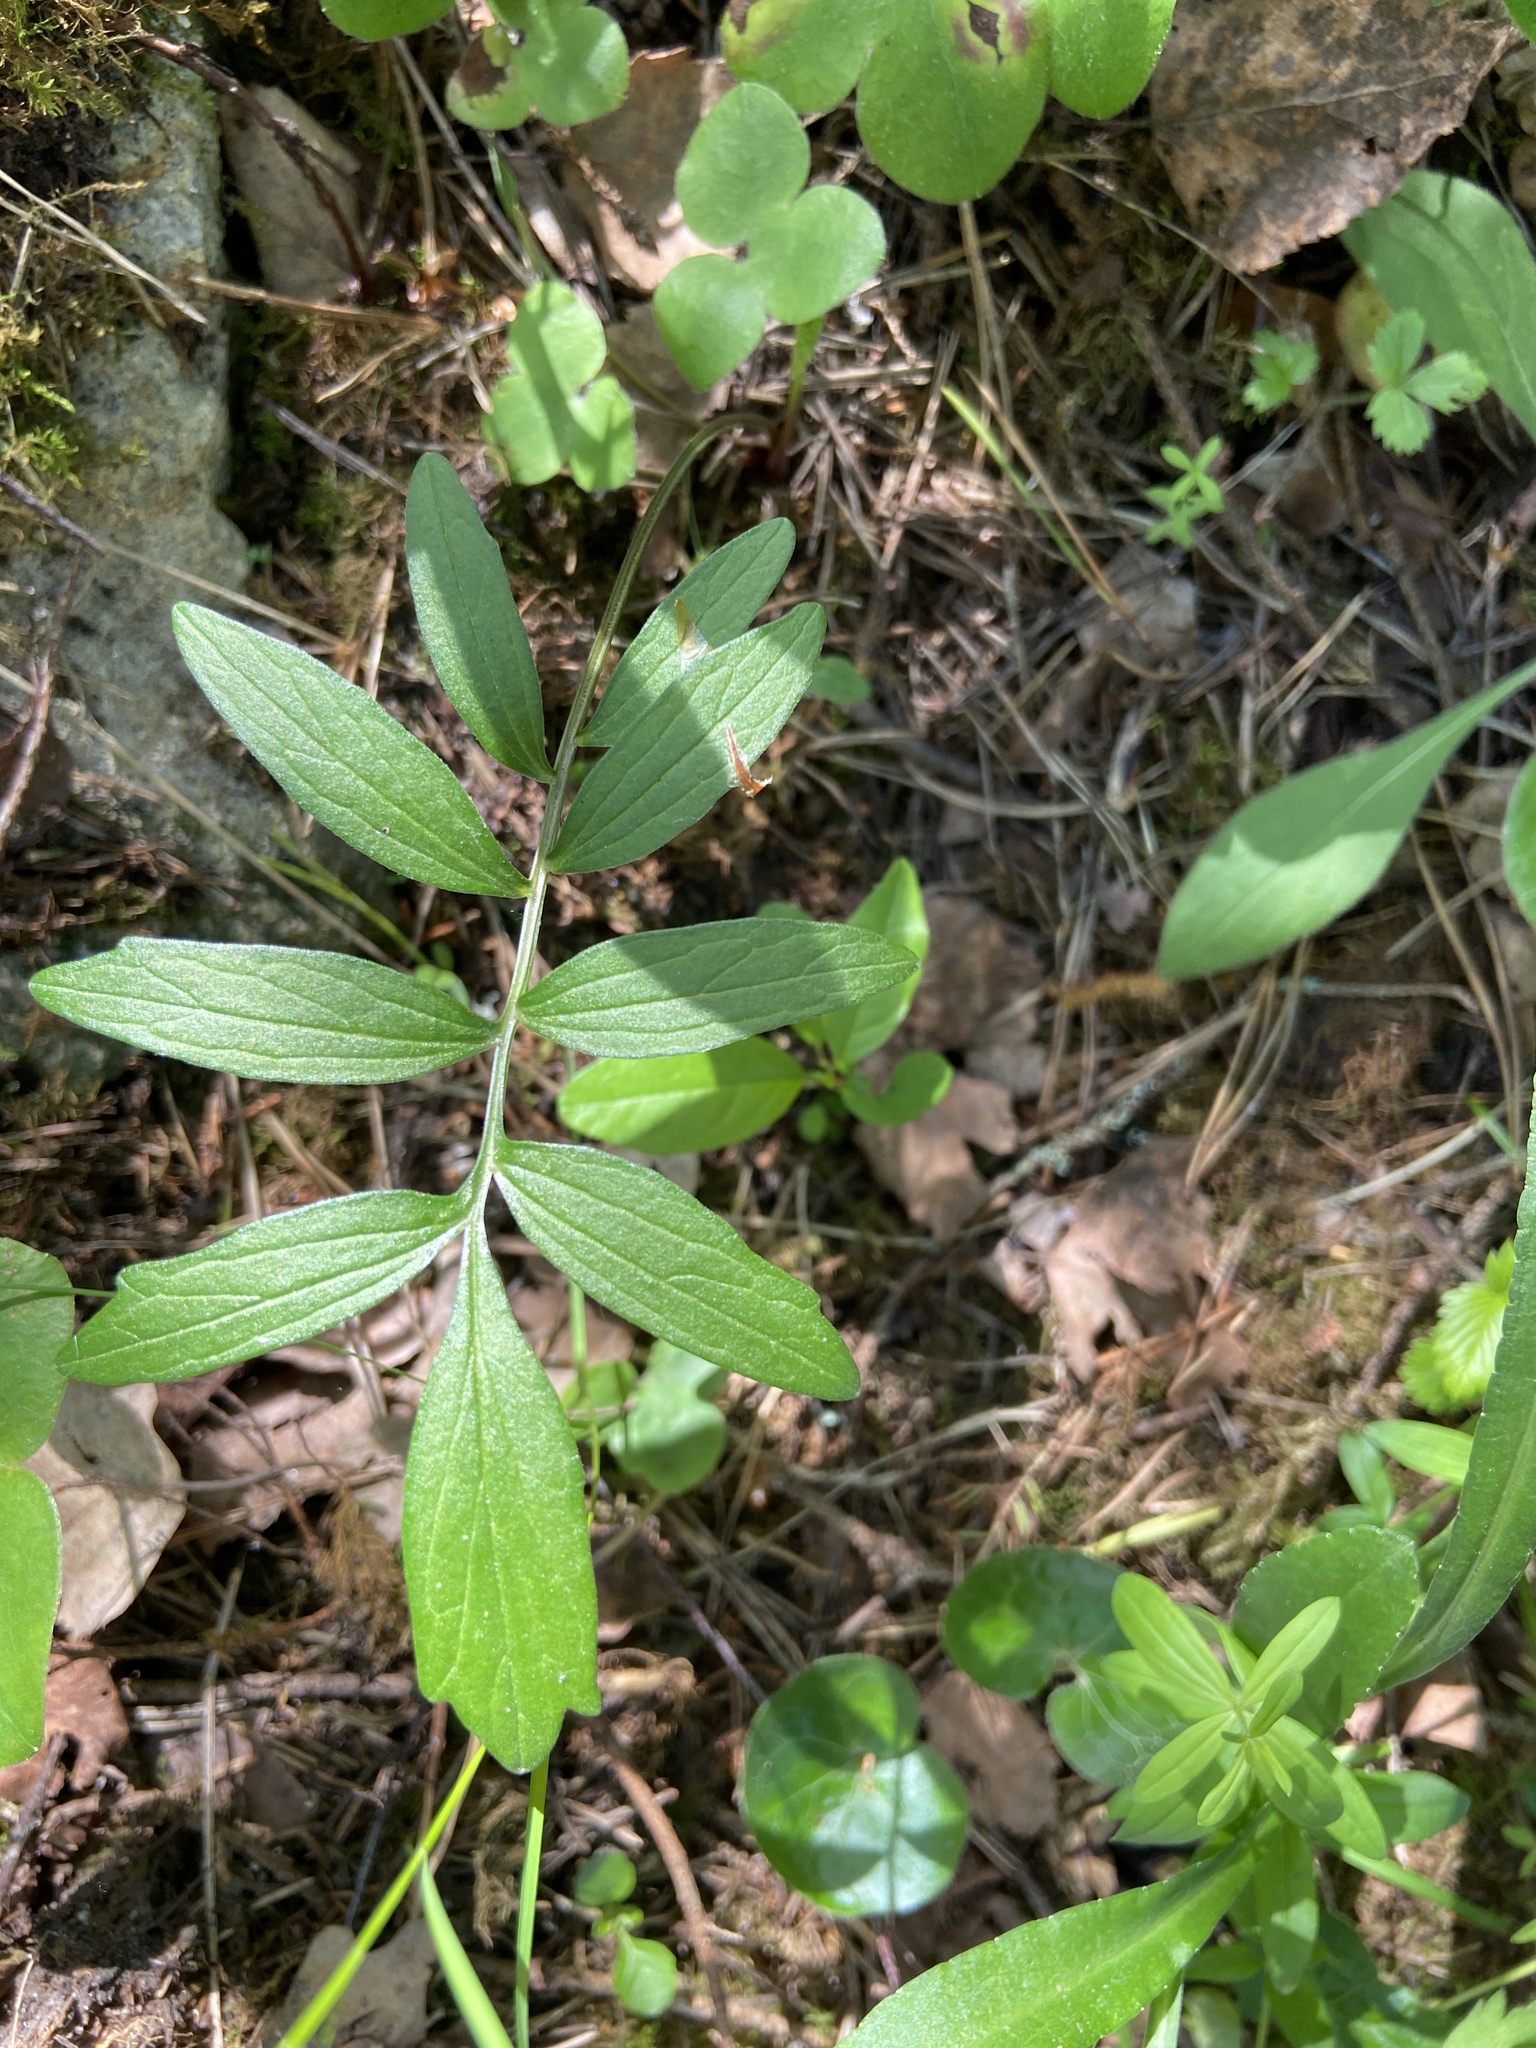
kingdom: Plantae
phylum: Tracheophyta
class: Magnoliopsida
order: Dipsacales
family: Caprifoliaceae
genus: Valeriana
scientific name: Valeriana officinalis
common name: Common valerian
